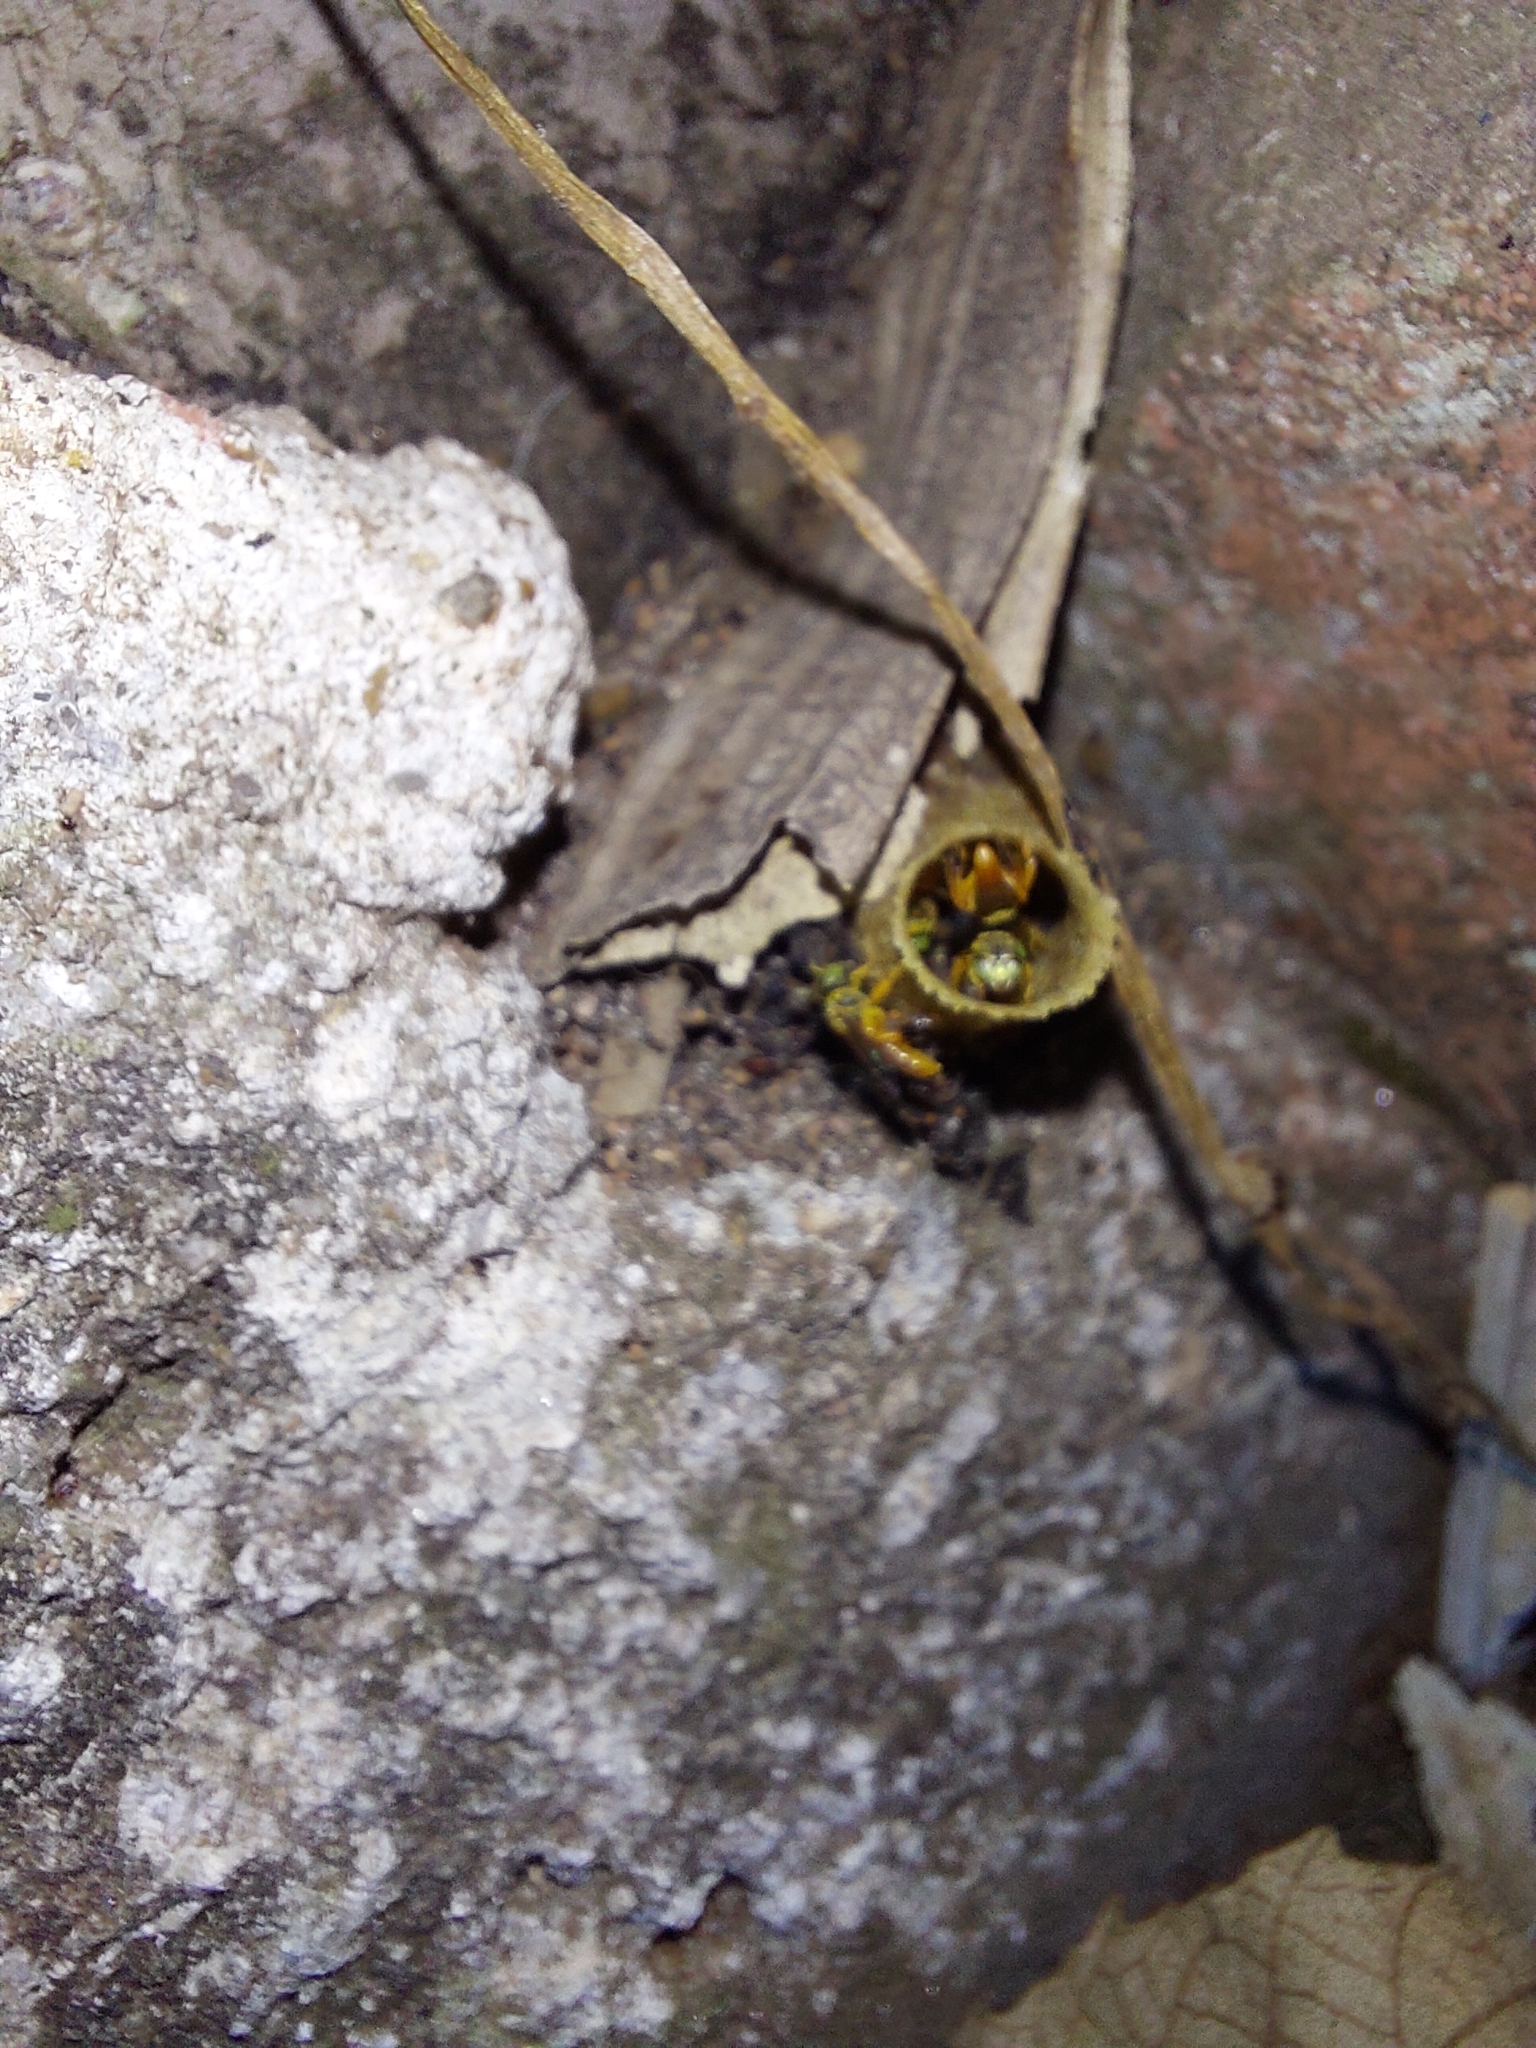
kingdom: Animalia
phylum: Arthropoda
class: Insecta
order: Hymenoptera
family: Apidae
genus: Tetragonisca
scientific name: Tetragonisca angustula
